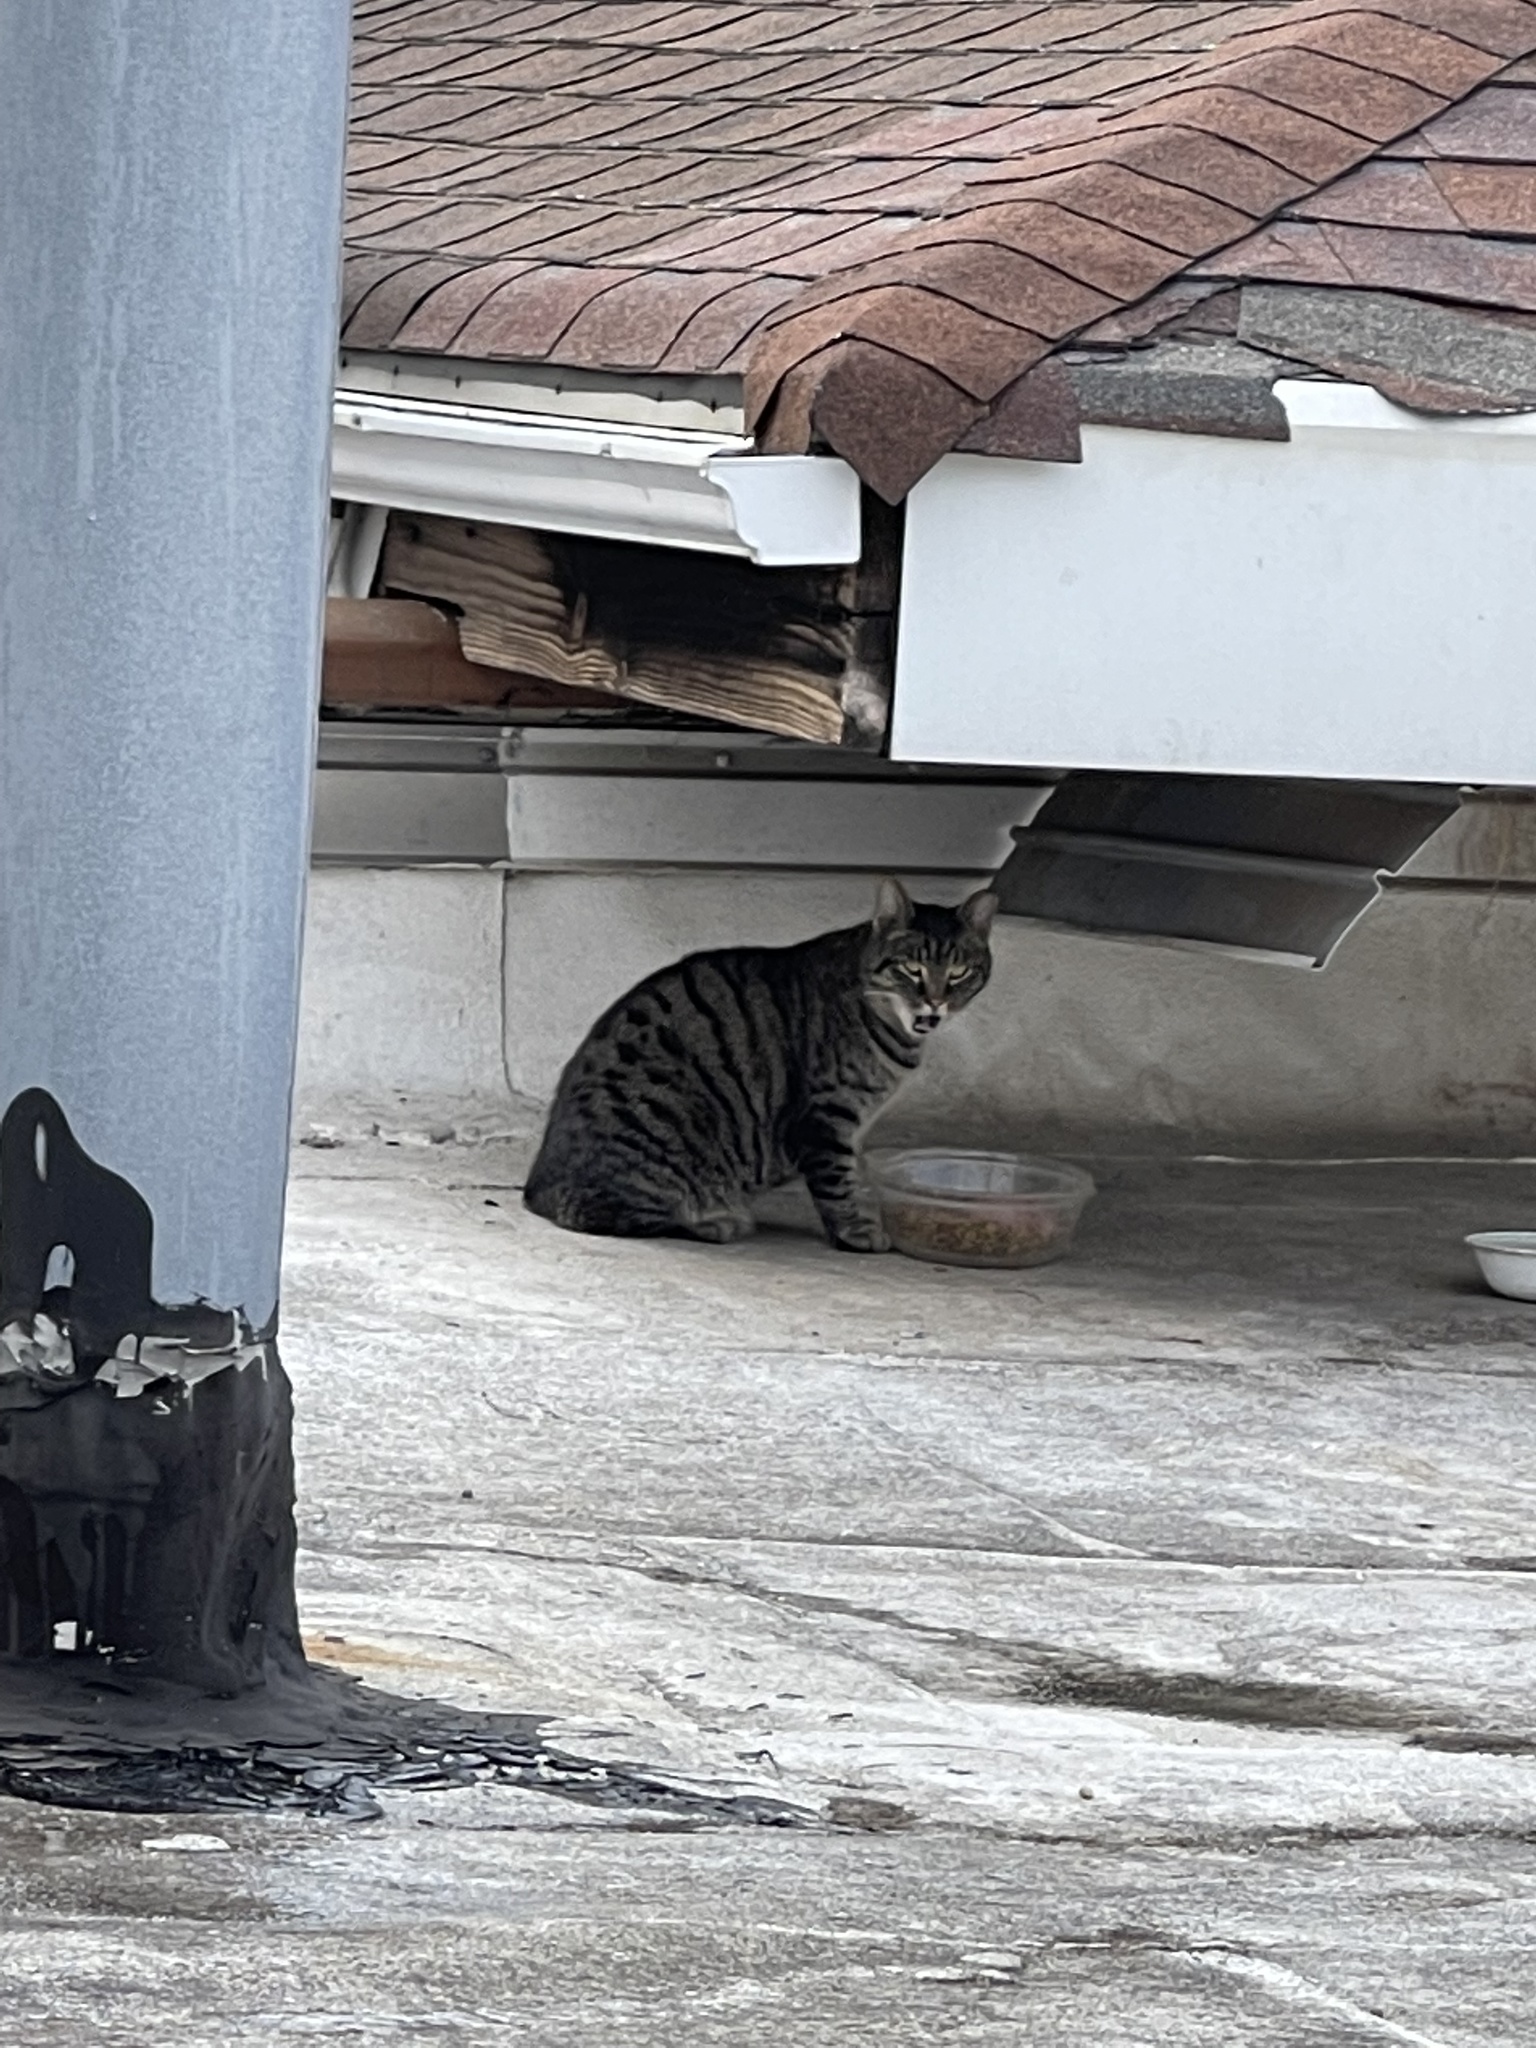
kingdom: Animalia
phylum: Chordata
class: Mammalia
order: Carnivora
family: Felidae
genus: Felis
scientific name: Felis catus
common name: Domestic cat
